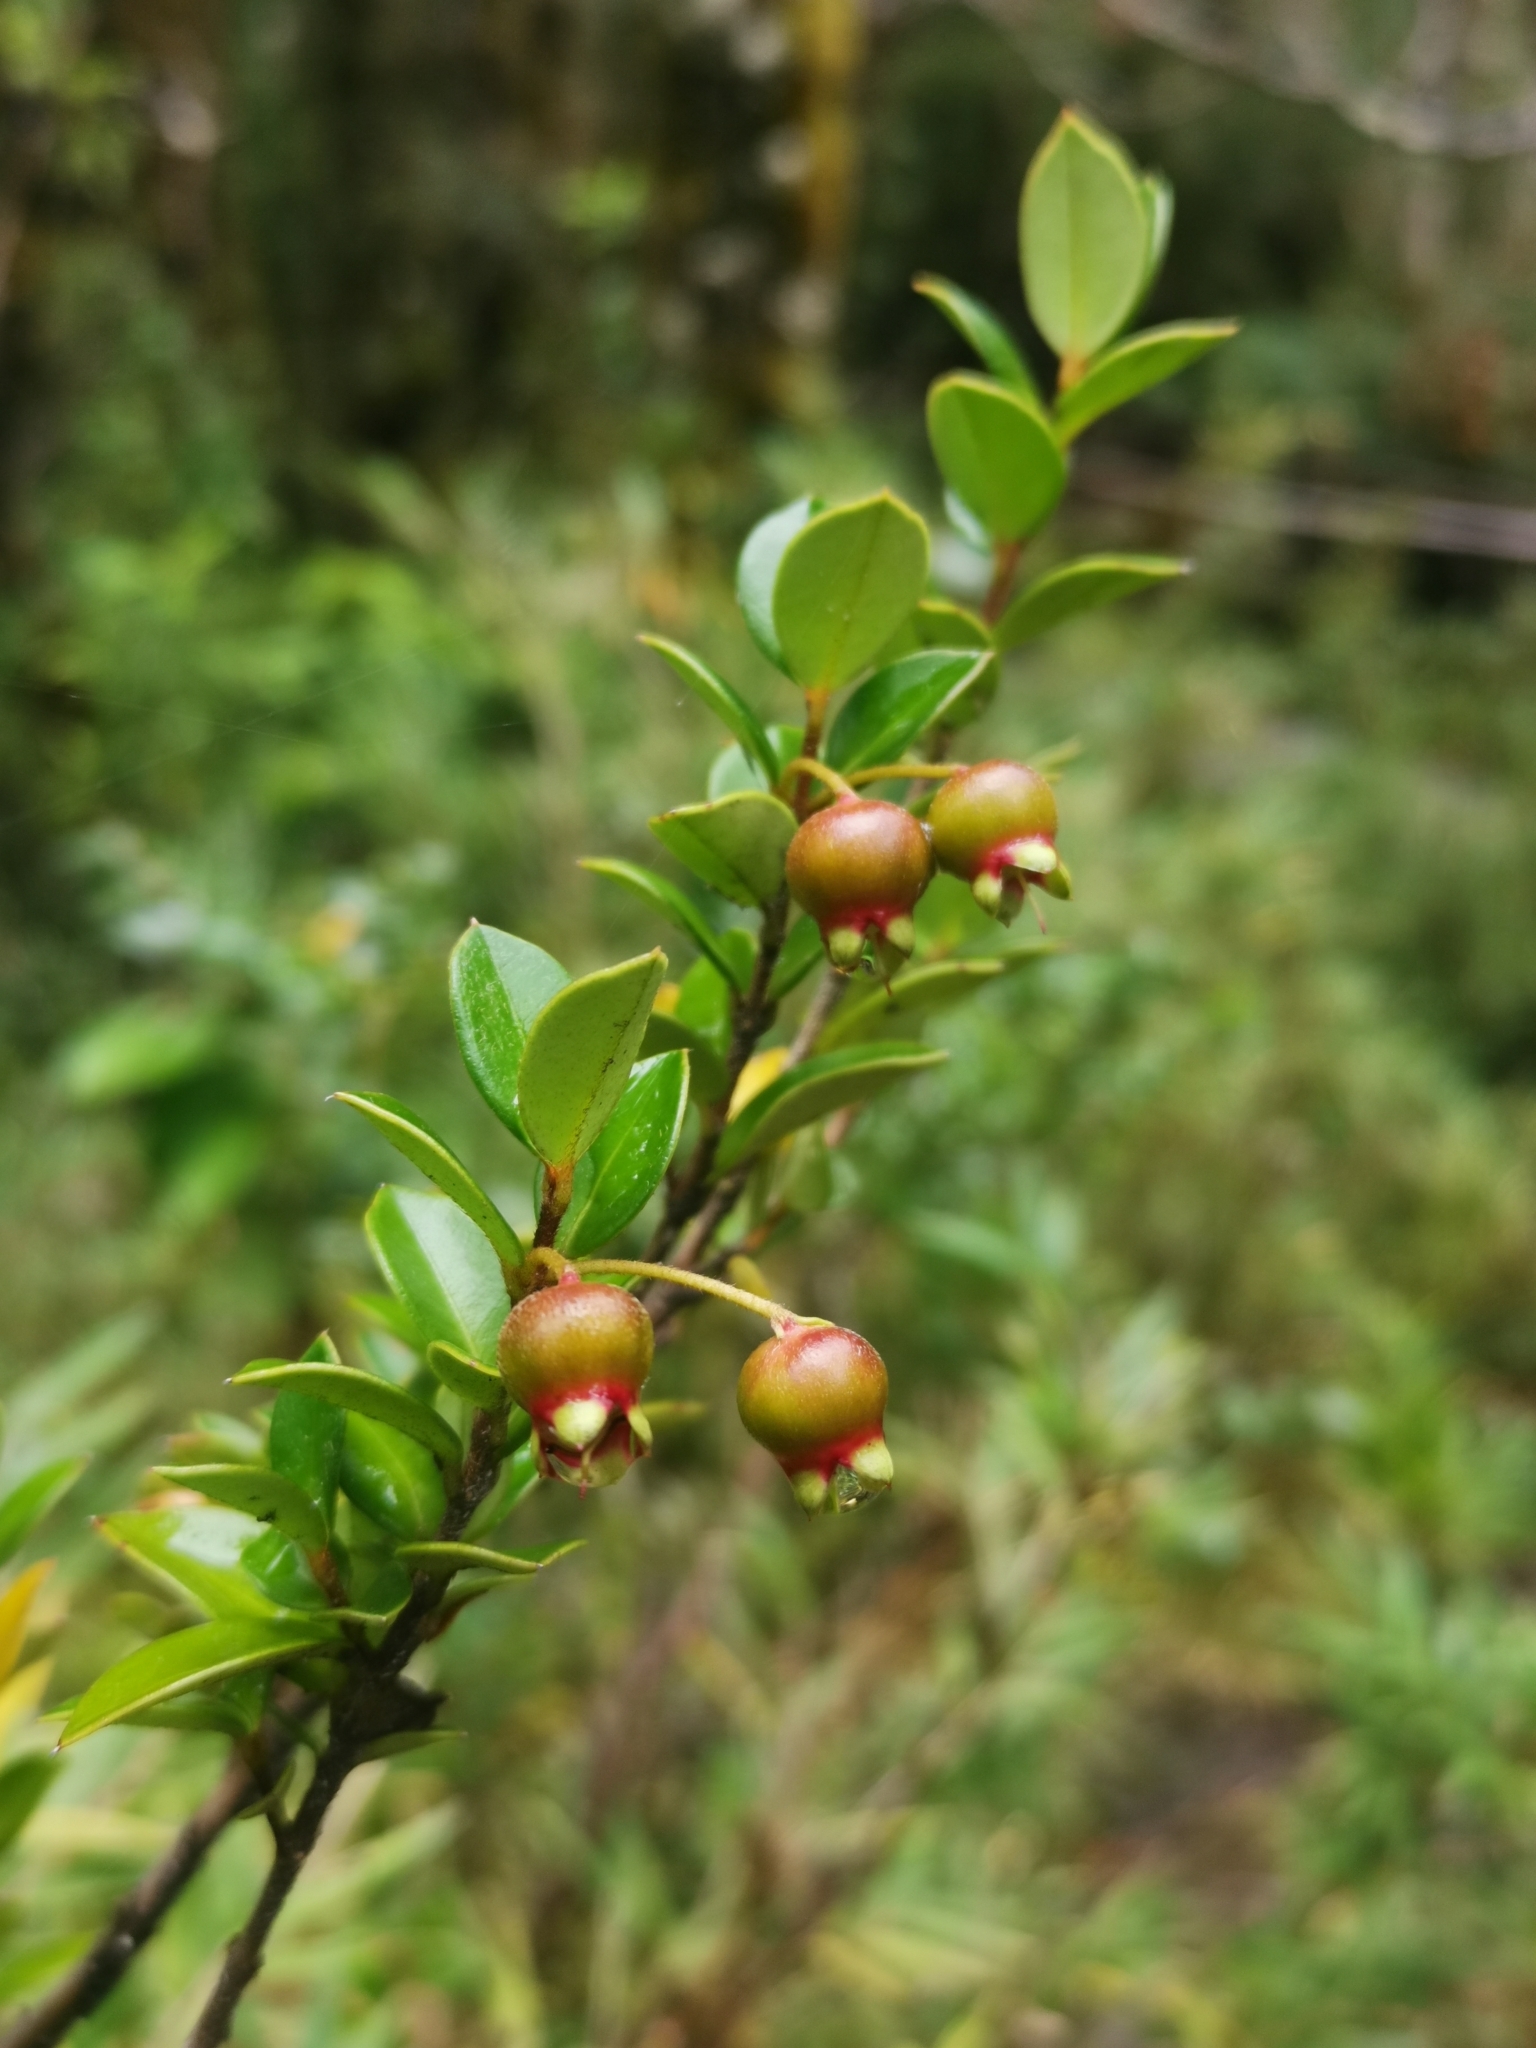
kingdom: Plantae
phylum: Tracheophyta
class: Magnoliopsida
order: Myrtales
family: Myrtaceae
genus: Ugni
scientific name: Ugni candollei
